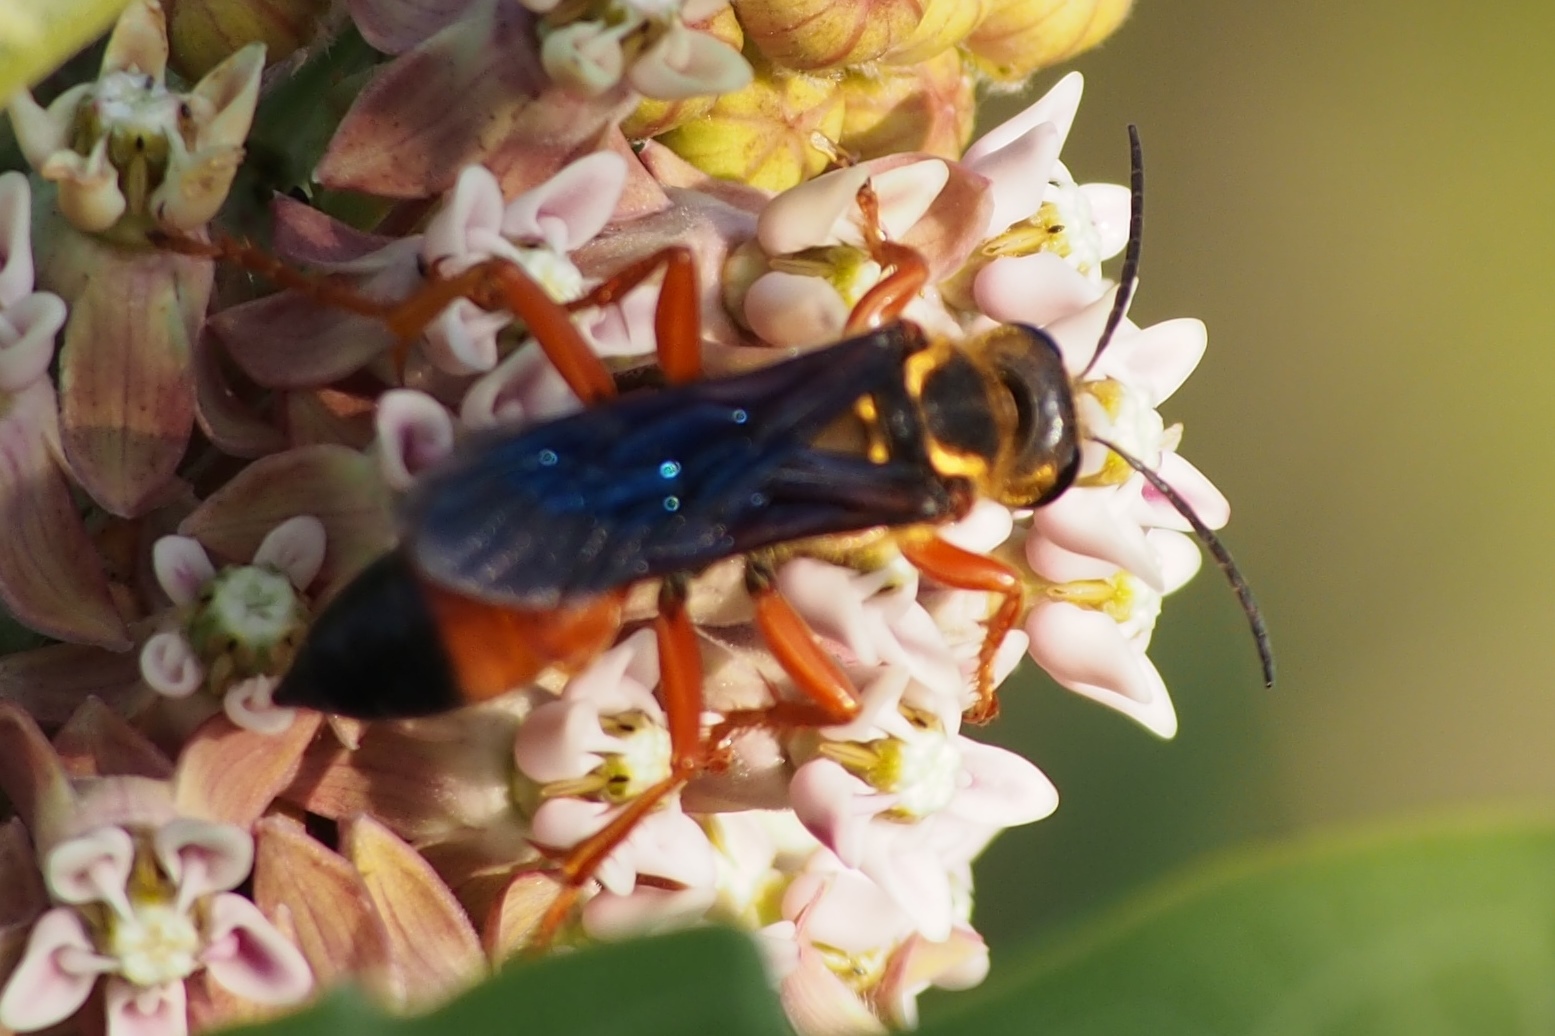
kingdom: Animalia
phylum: Arthropoda
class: Insecta
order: Hymenoptera
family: Sphecidae
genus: Sphex
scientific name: Sphex ichneumoneus
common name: Great golden digger wasp
